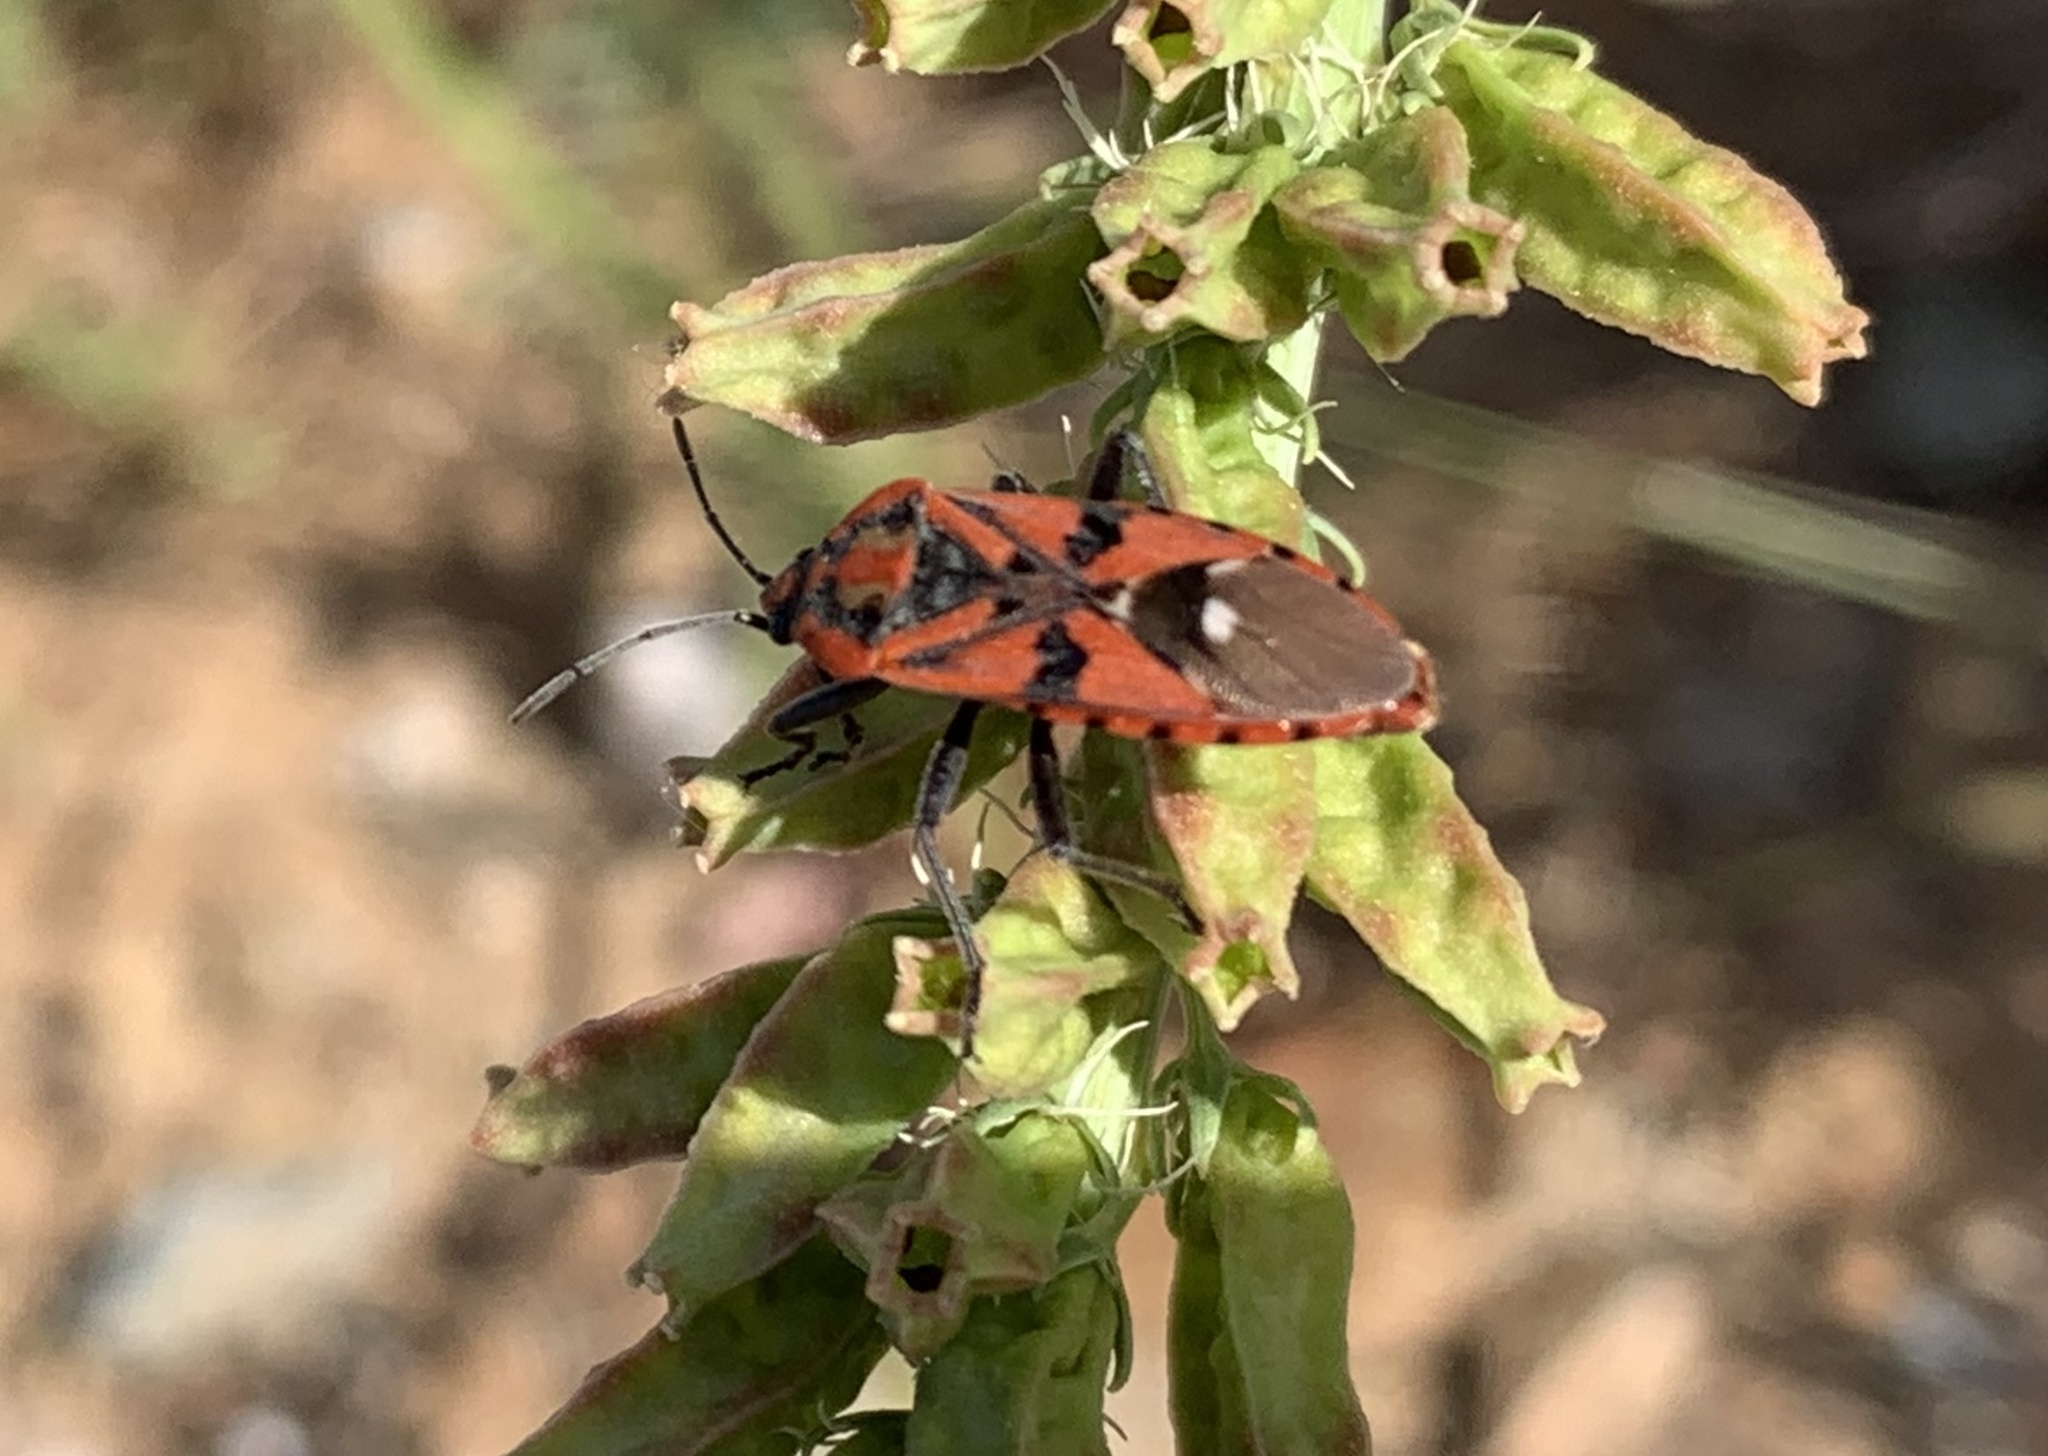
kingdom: Animalia
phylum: Arthropoda
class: Insecta
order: Hemiptera
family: Lygaeidae
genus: Spilostethus
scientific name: Spilostethus pandurus
